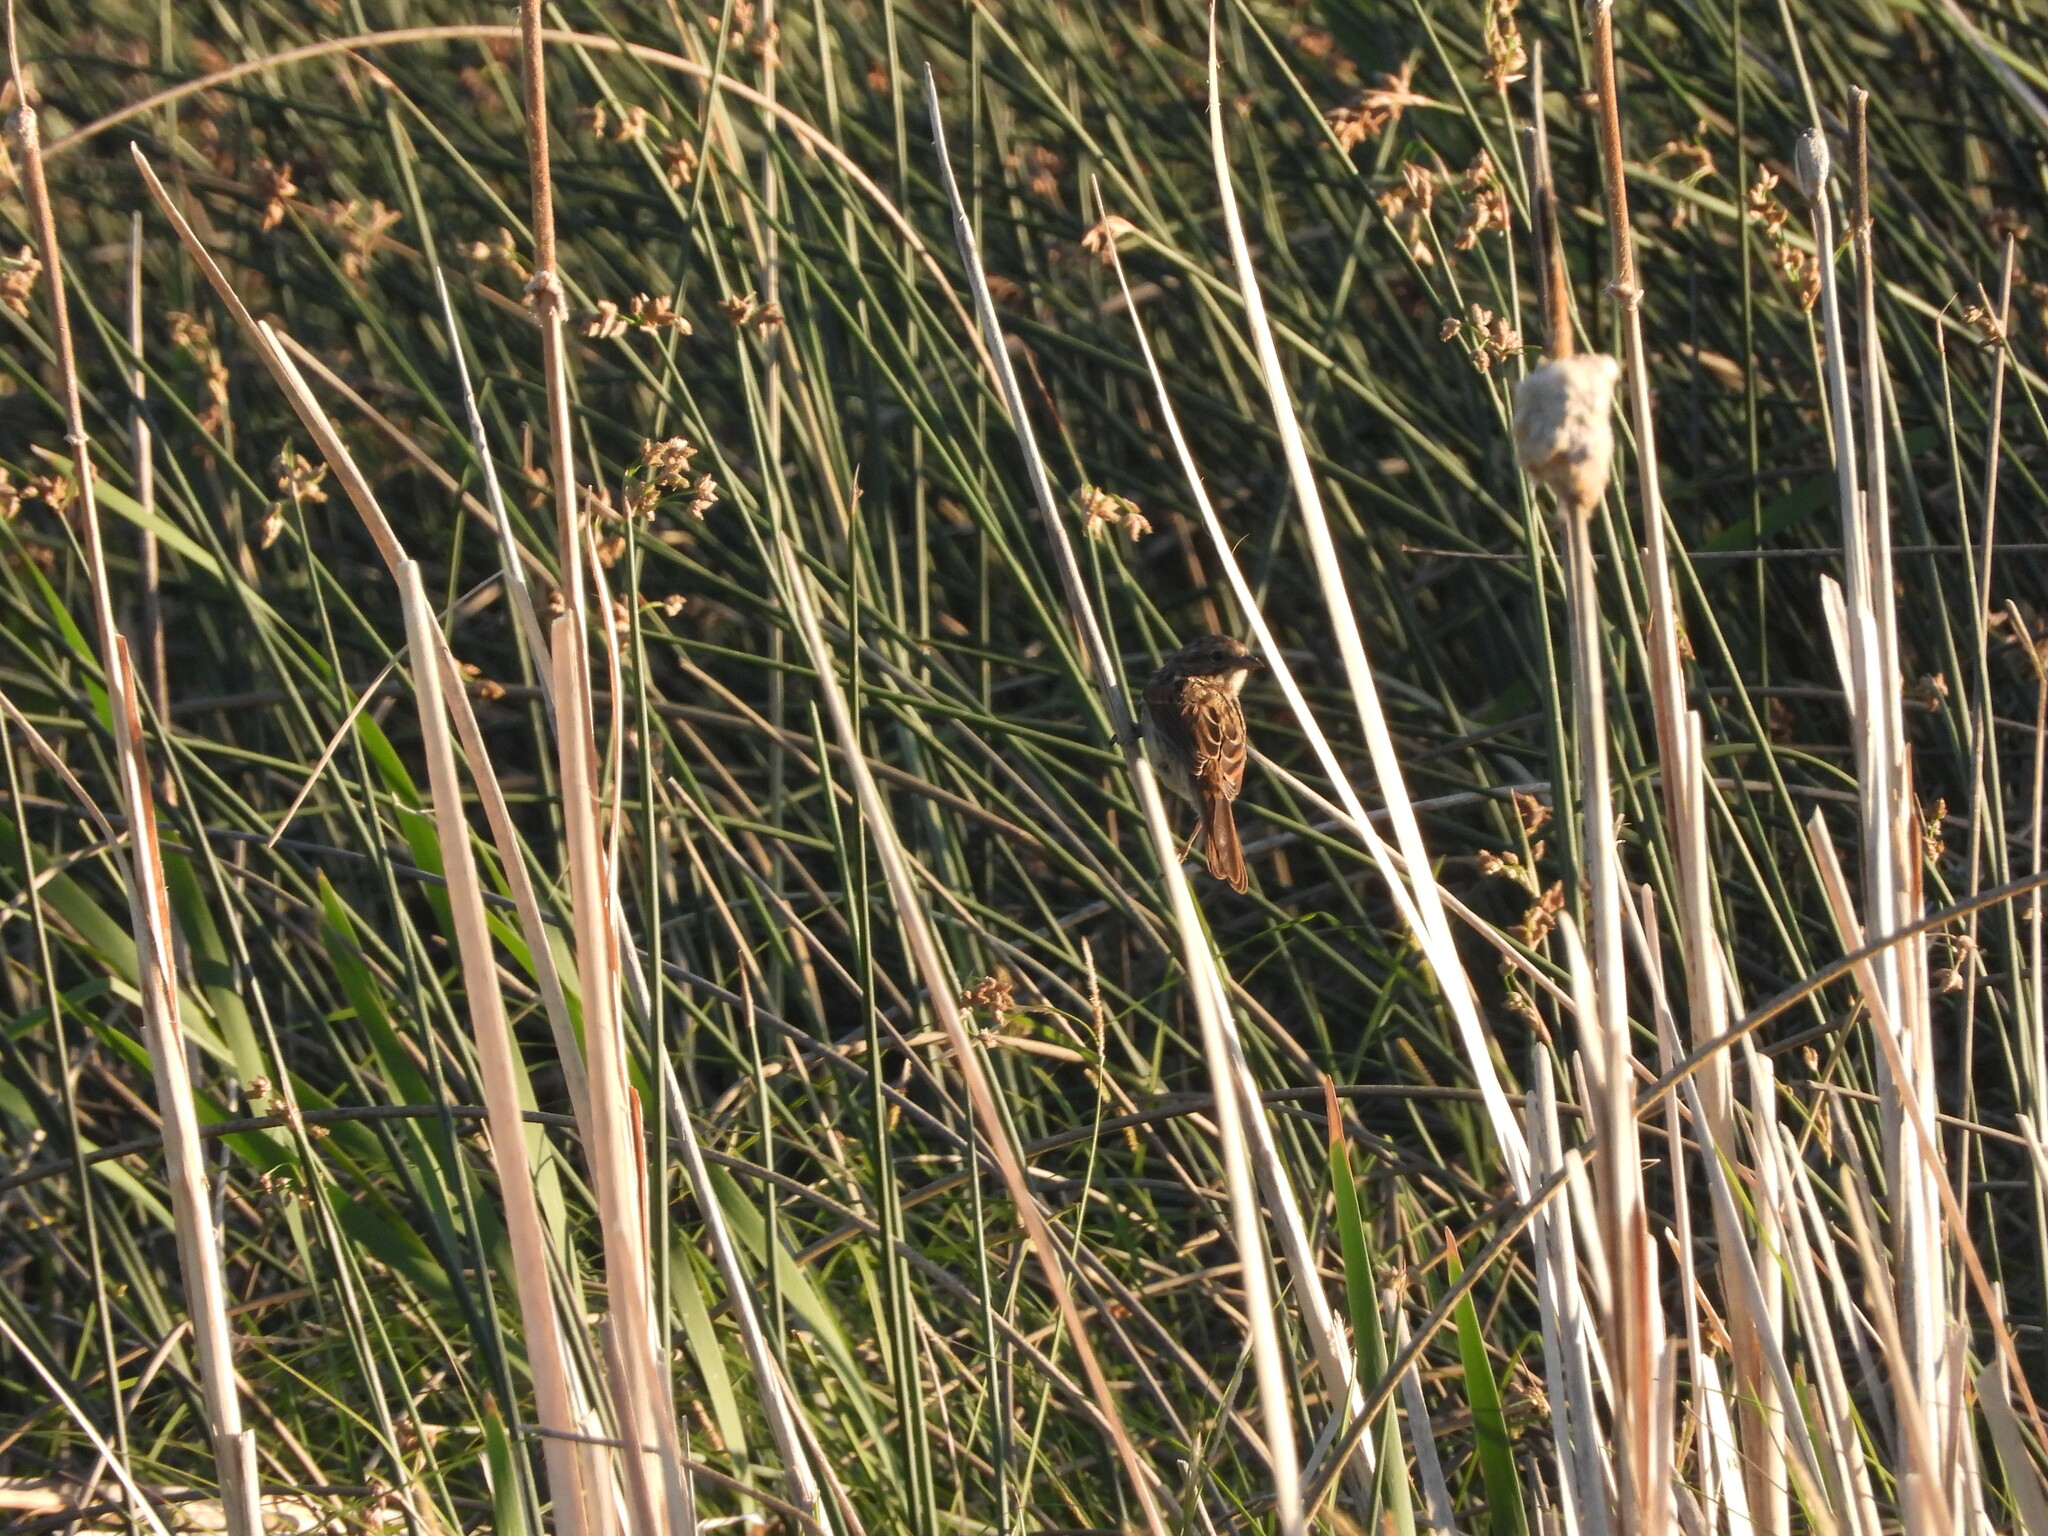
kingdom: Animalia
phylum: Chordata
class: Aves
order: Passeriformes
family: Passerellidae
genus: Melospiza
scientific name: Melospiza melodia
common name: Song sparrow
